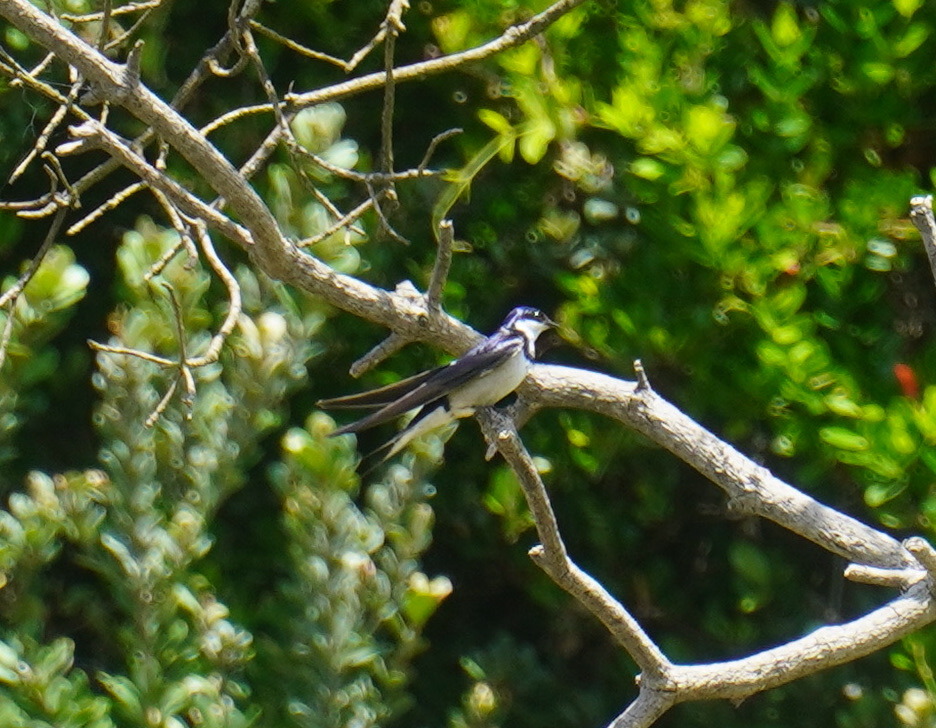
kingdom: Animalia
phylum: Chordata
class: Aves
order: Passeriformes
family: Hirundinidae
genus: Hirundo
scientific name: Hirundo albigularis
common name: White-throated swallow
